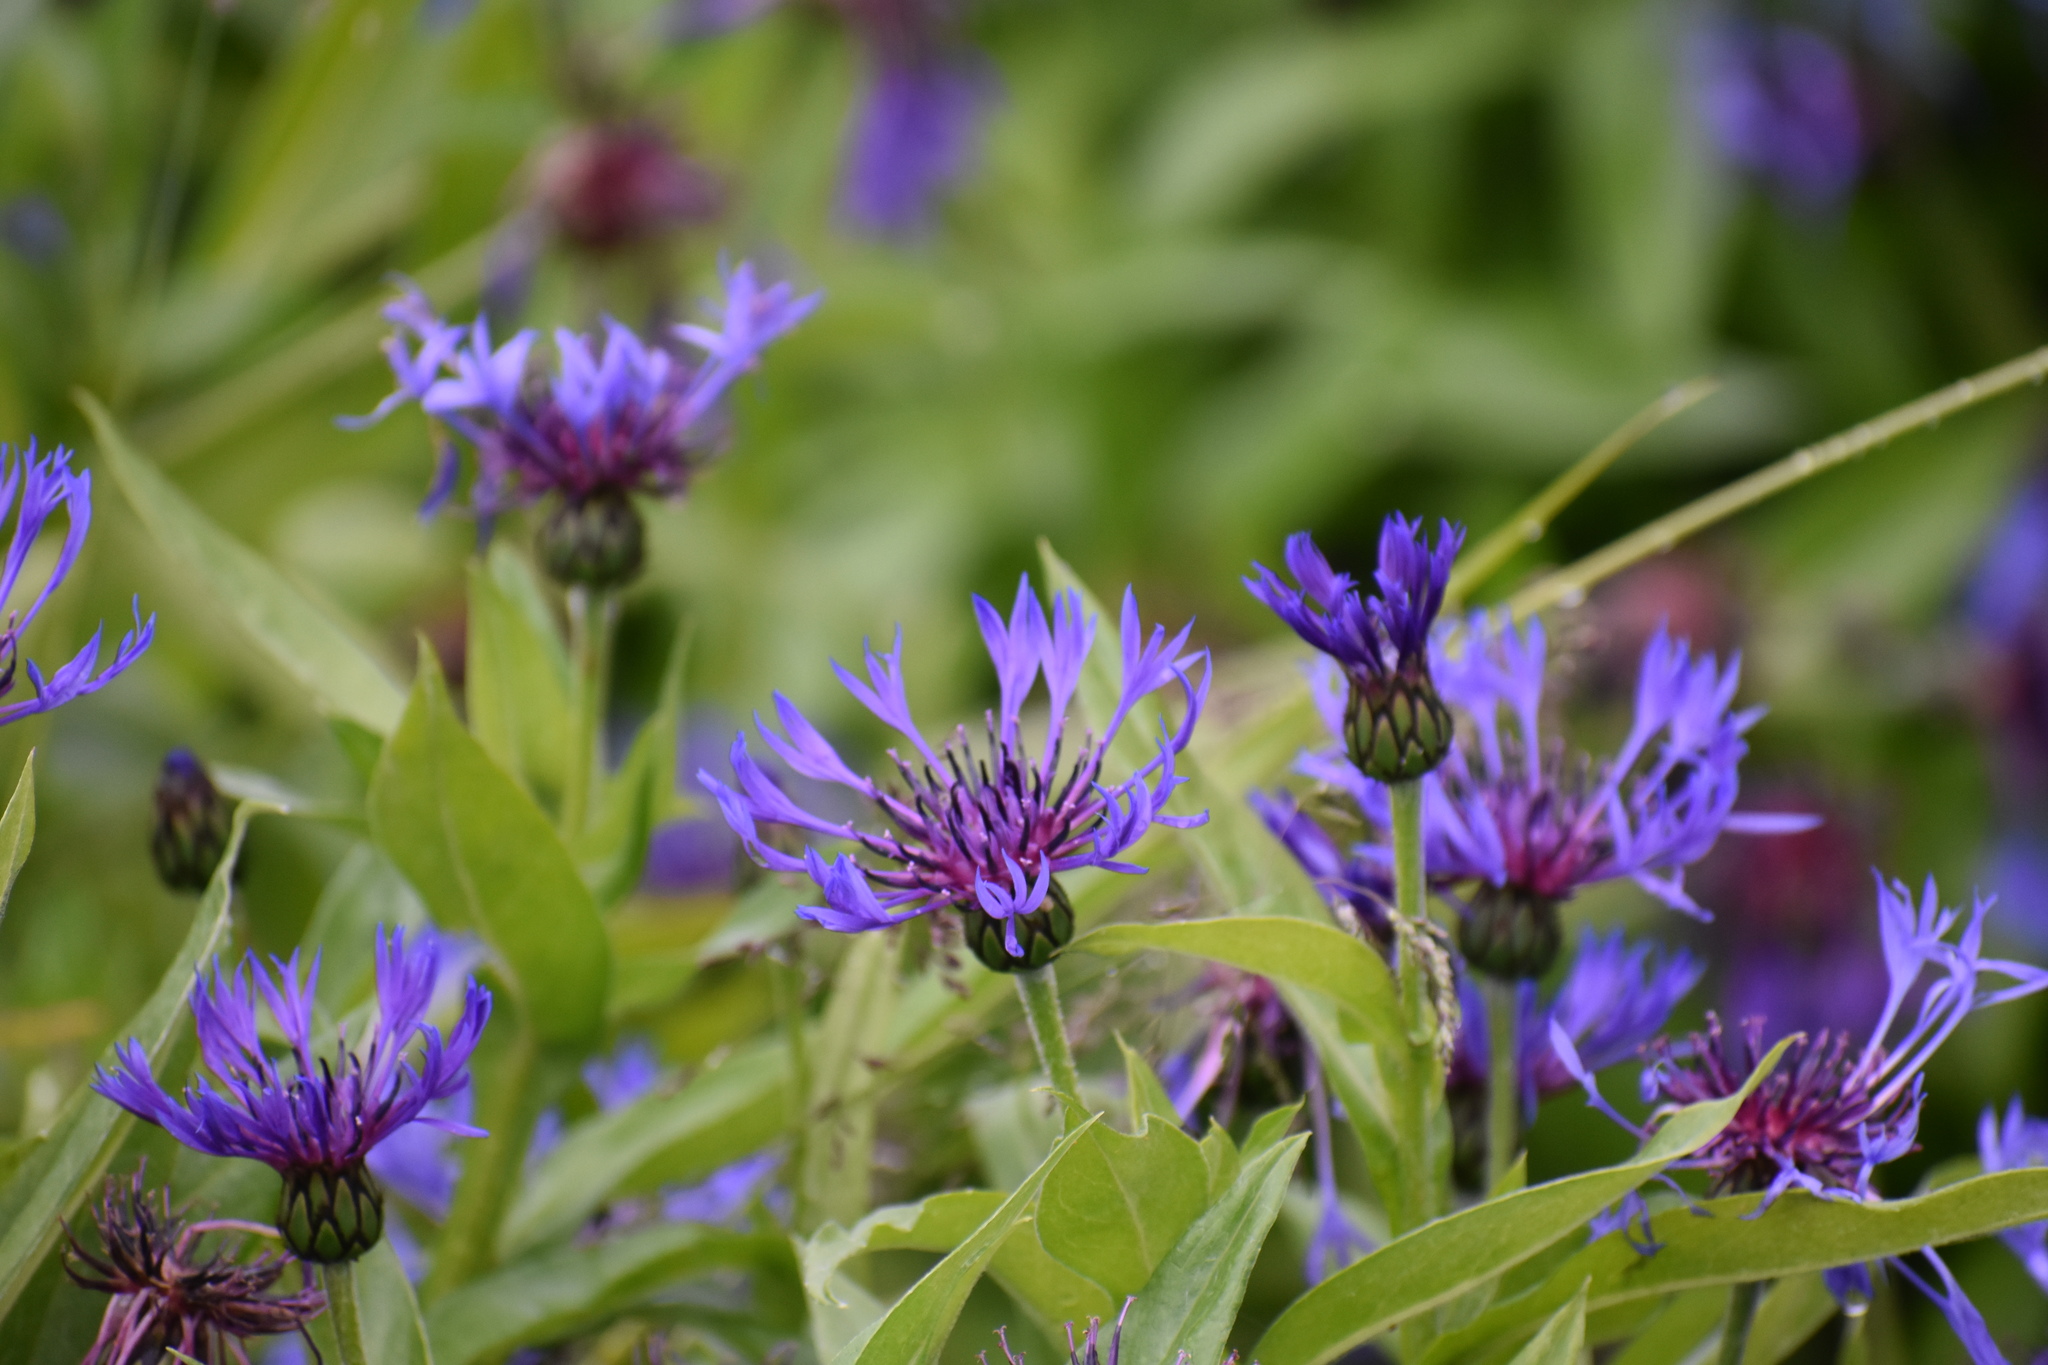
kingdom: Plantae
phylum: Tracheophyta
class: Magnoliopsida
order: Asterales
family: Asteraceae
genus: Centaurea
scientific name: Centaurea montana
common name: Perennial cornflower
